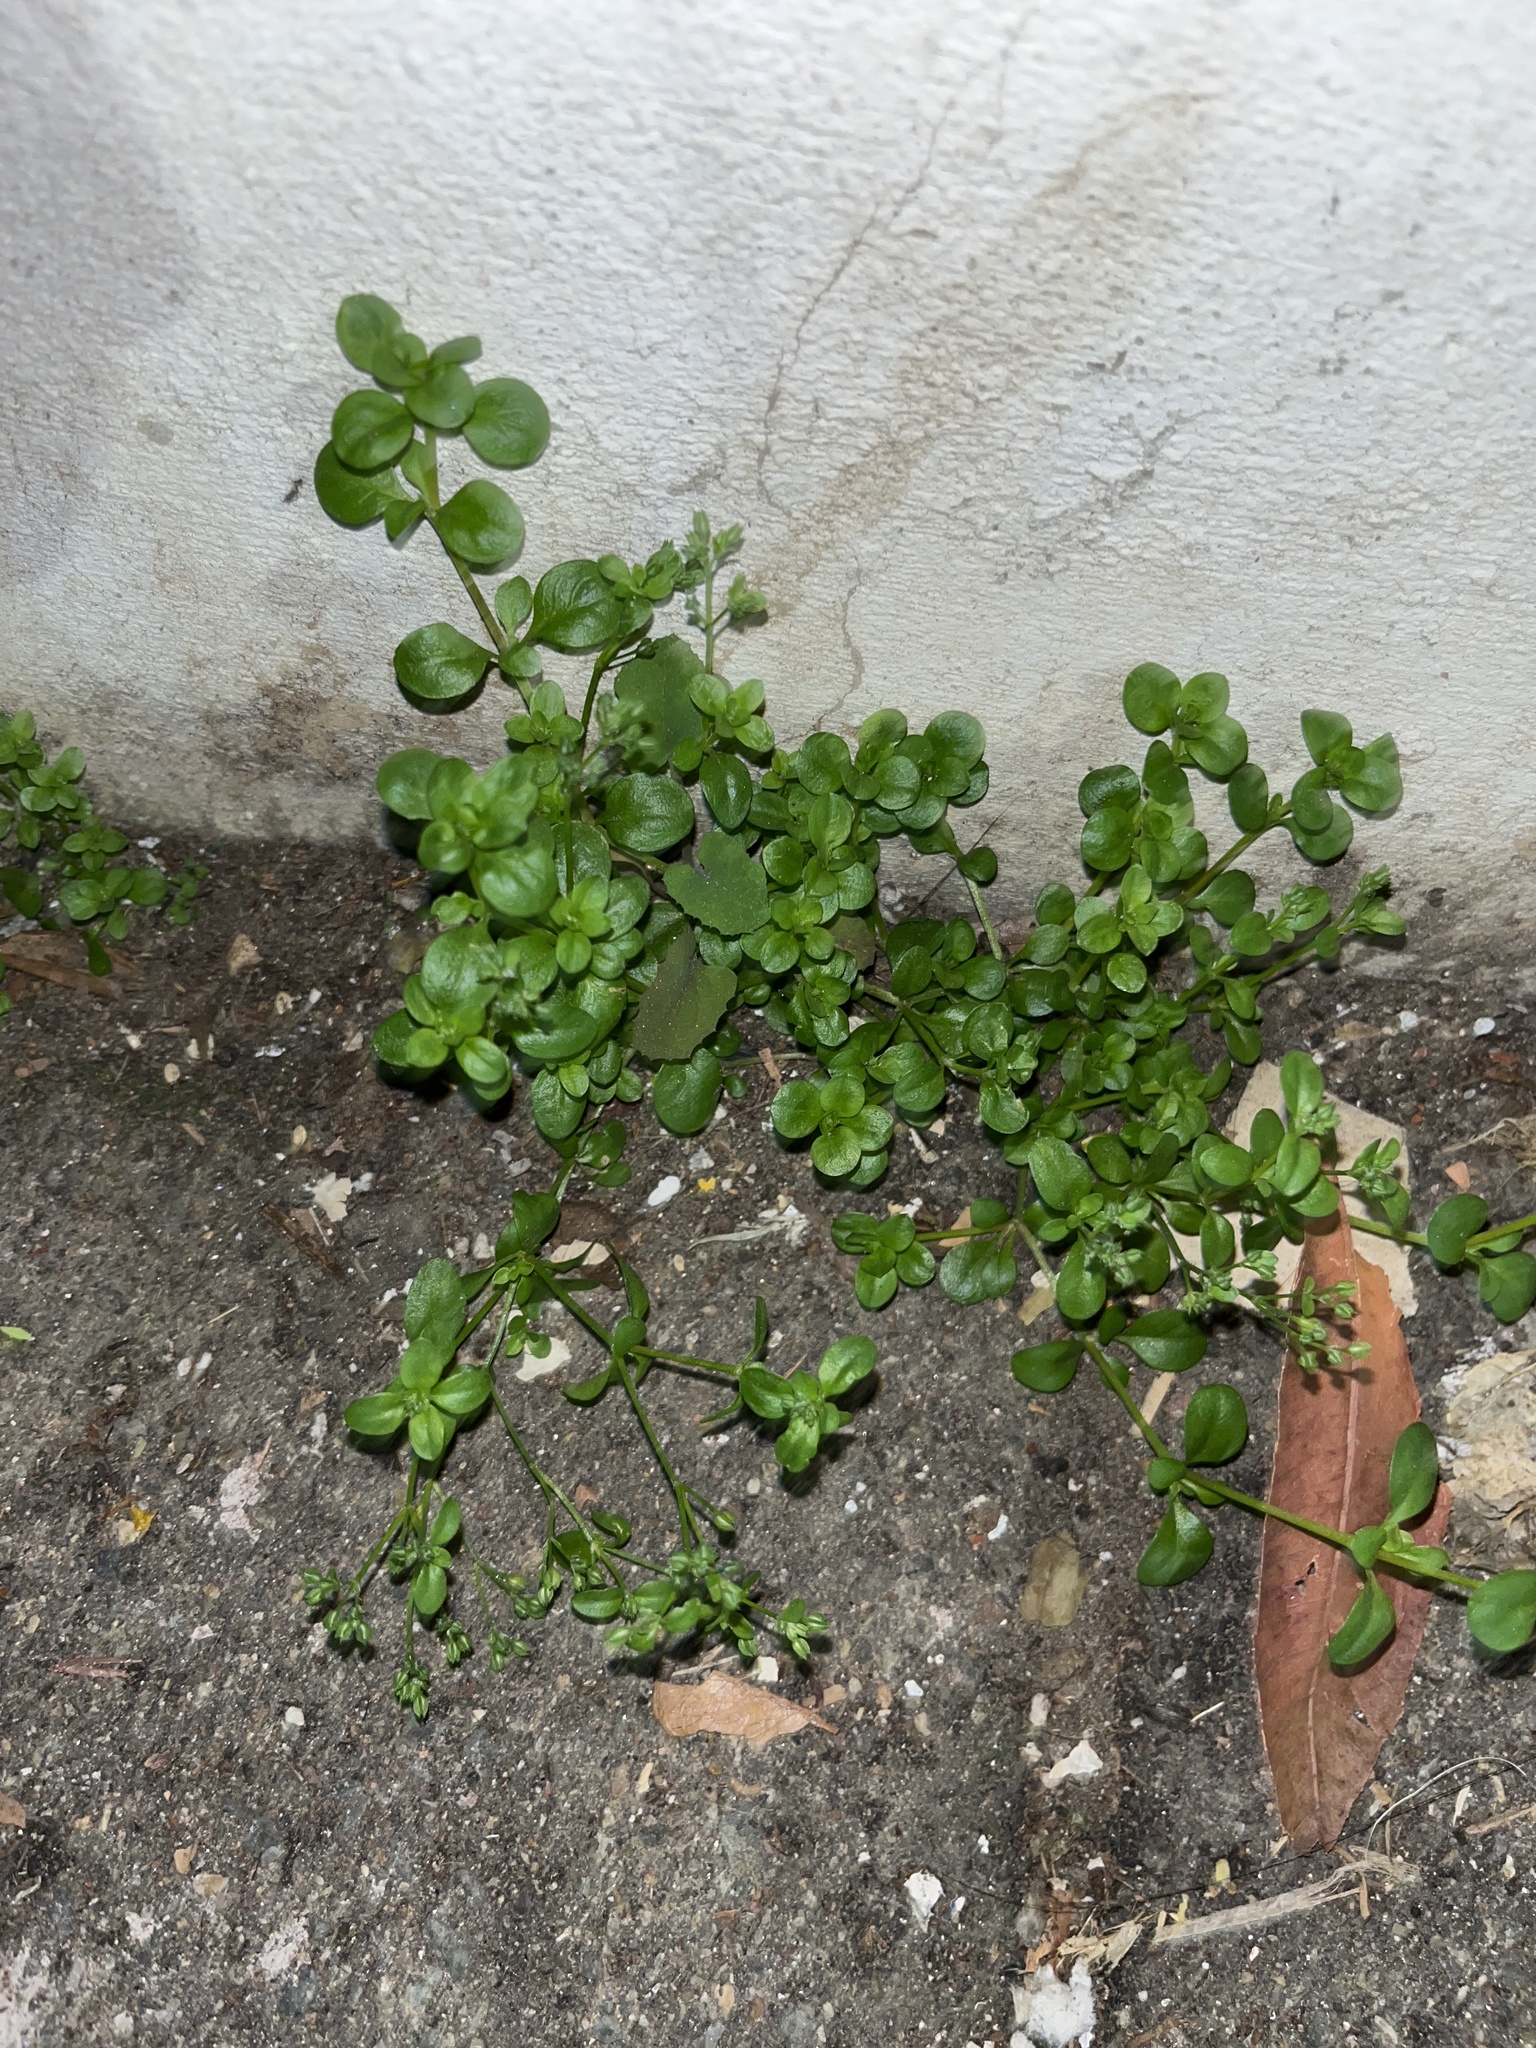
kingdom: Plantae
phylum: Tracheophyta
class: Magnoliopsida
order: Caryophyllales
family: Caryophyllaceae
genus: Polycarpon
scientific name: Polycarpon tetraphyllum
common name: Four-leaved all-seed
